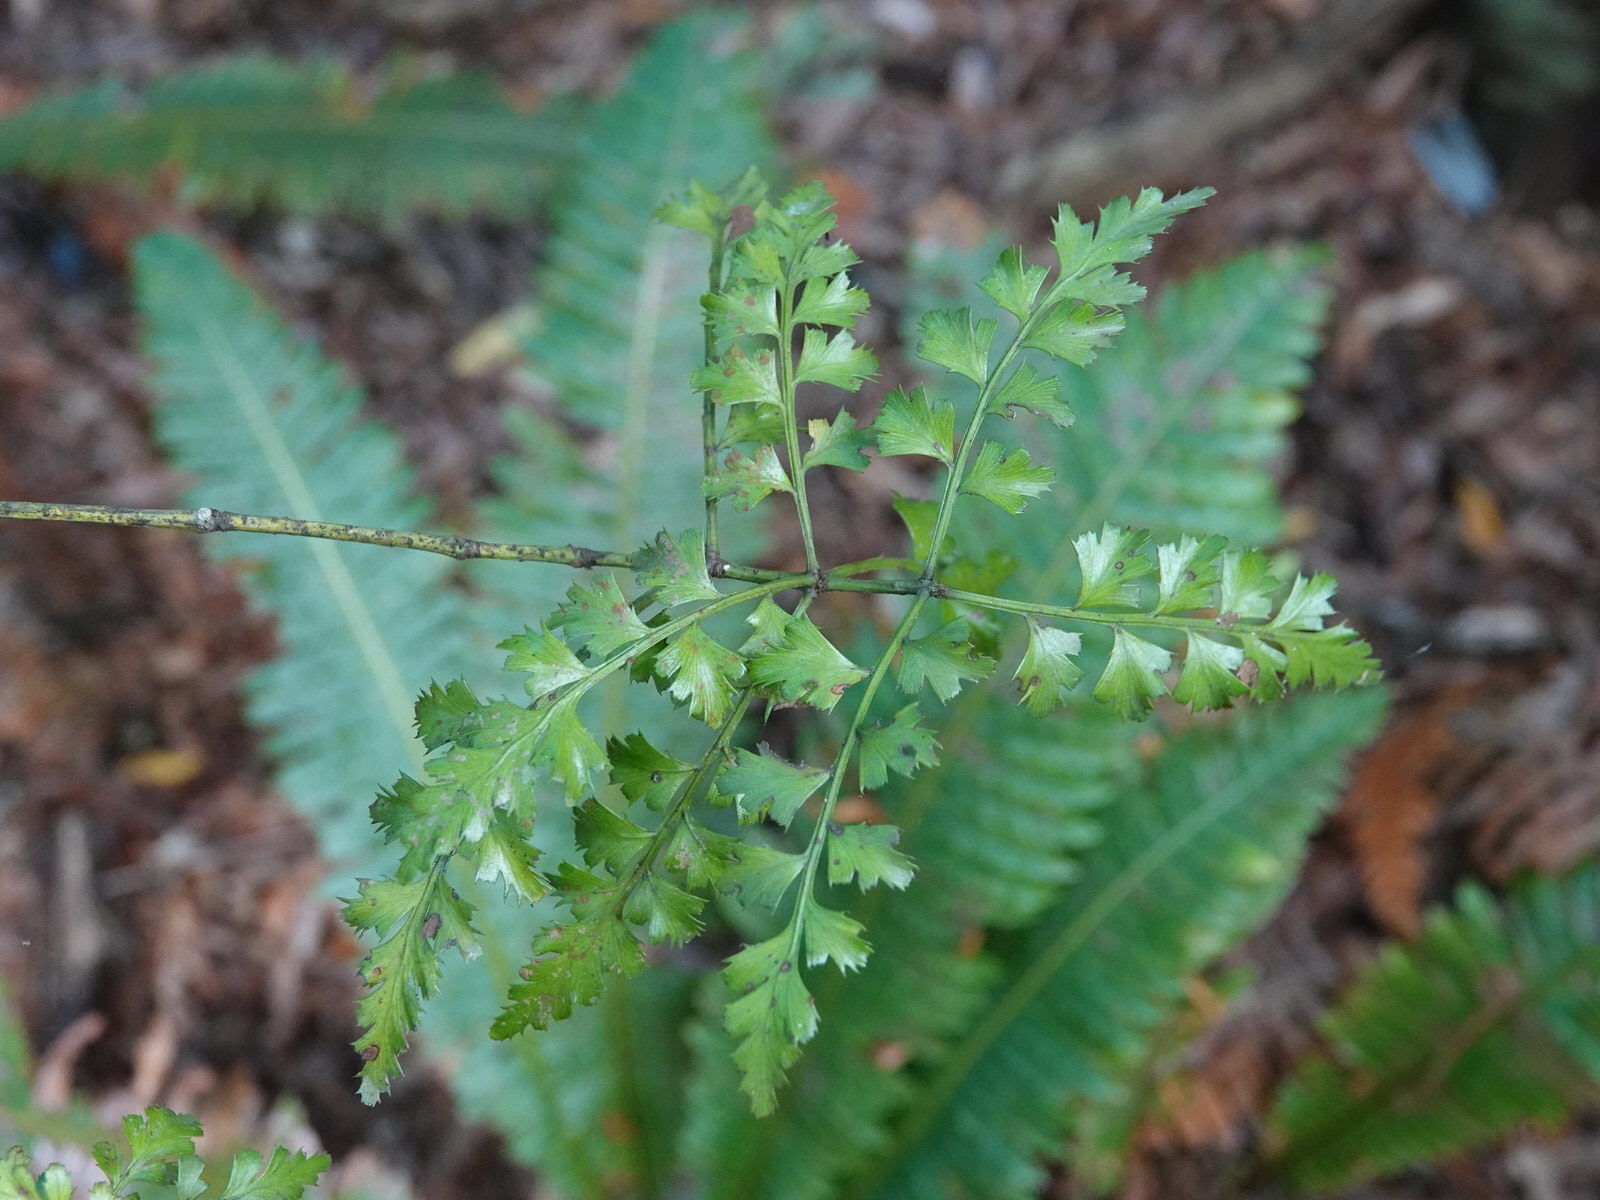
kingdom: Plantae
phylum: Tracheophyta
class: Pinopsida
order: Pinales
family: Phyllocladaceae
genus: Phyllocladus
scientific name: Phyllocladus trichomanoides
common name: Celery pine
